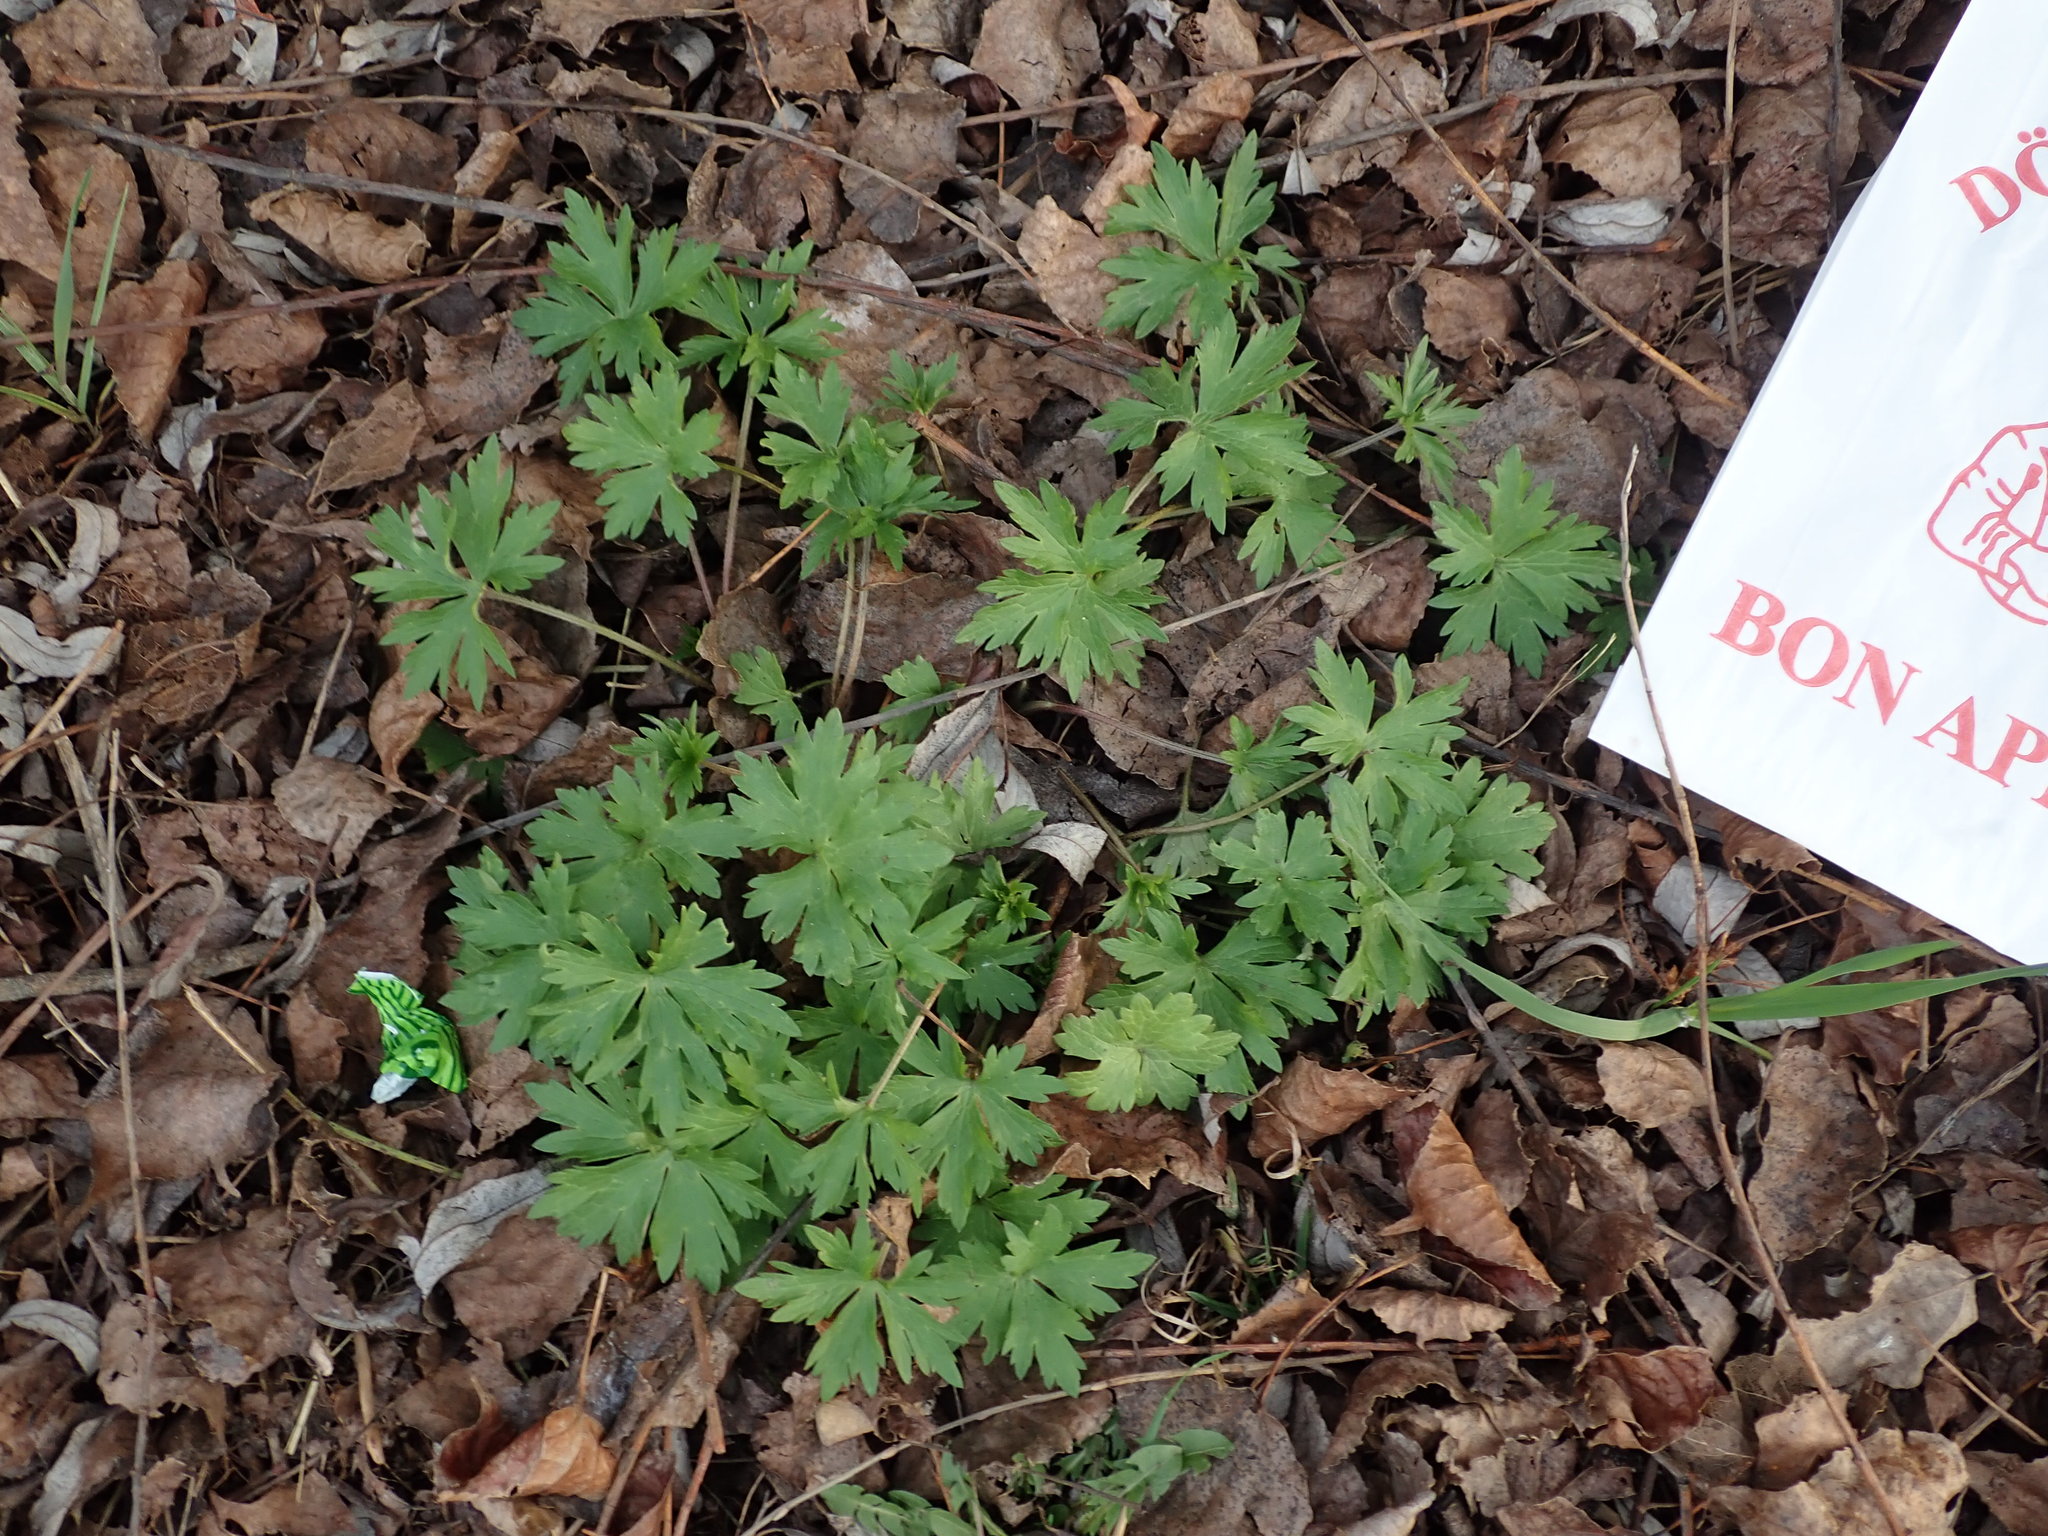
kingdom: Plantae
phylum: Tracheophyta
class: Magnoliopsida
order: Ranunculales
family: Ranunculaceae
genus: Ranunculus
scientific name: Ranunculus acris
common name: Meadow buttercup
